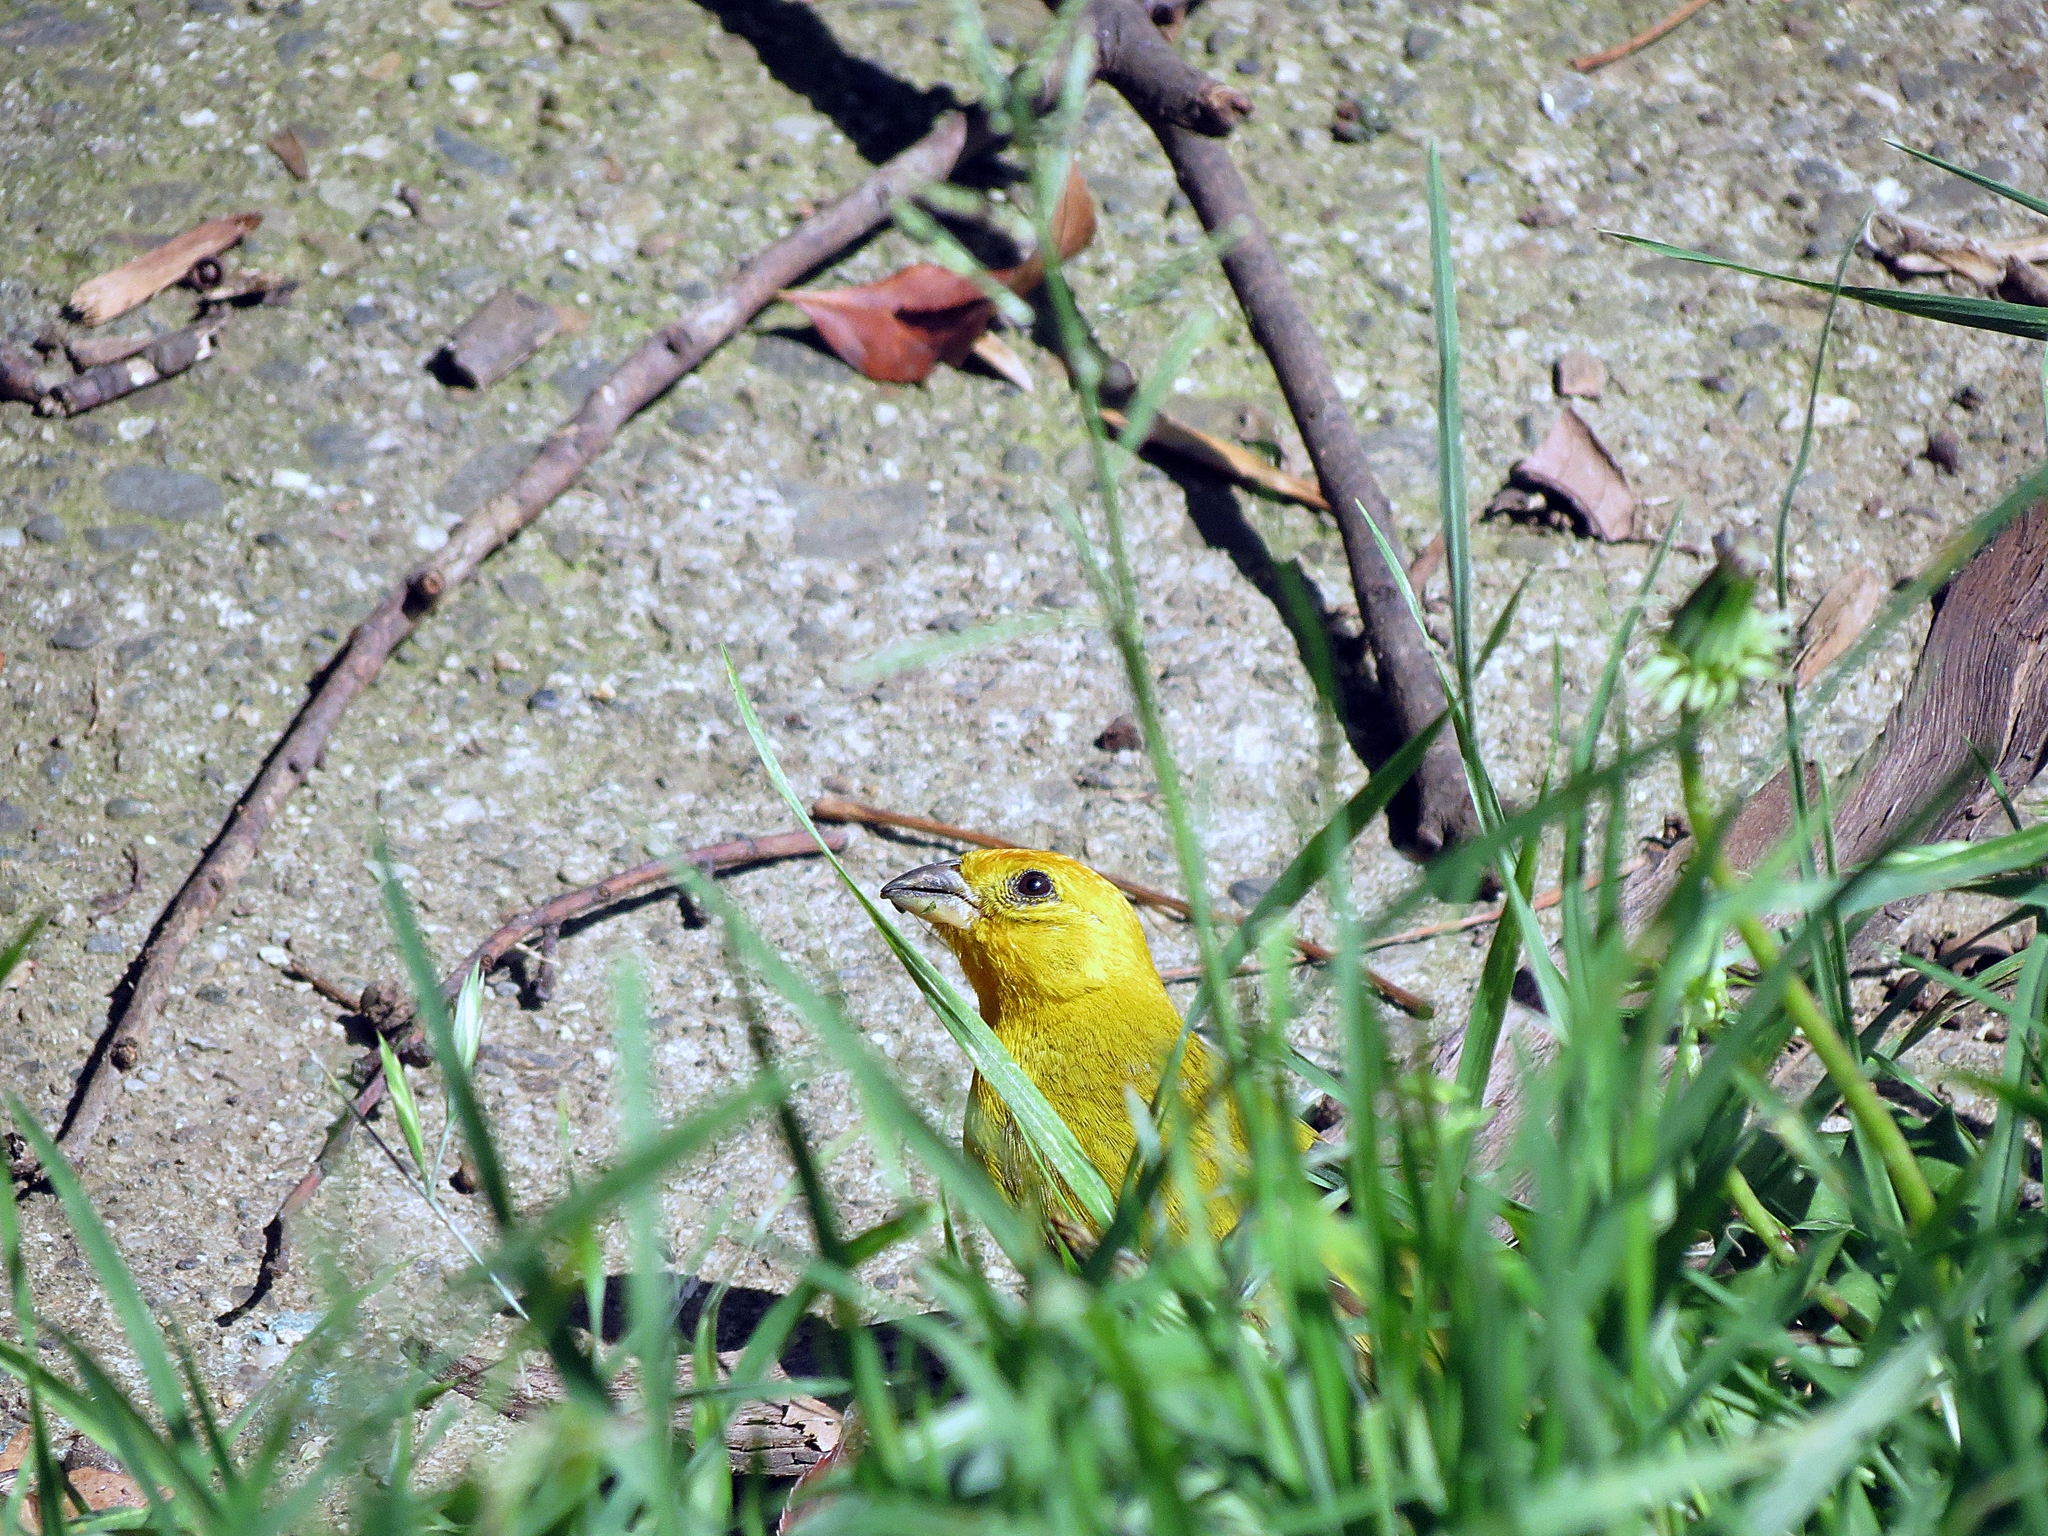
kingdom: Animalia
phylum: Chordata
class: Aves
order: Passeriformes
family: Thraupidae
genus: Sicalis
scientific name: Sicalis flaveola
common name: Saffron finch
